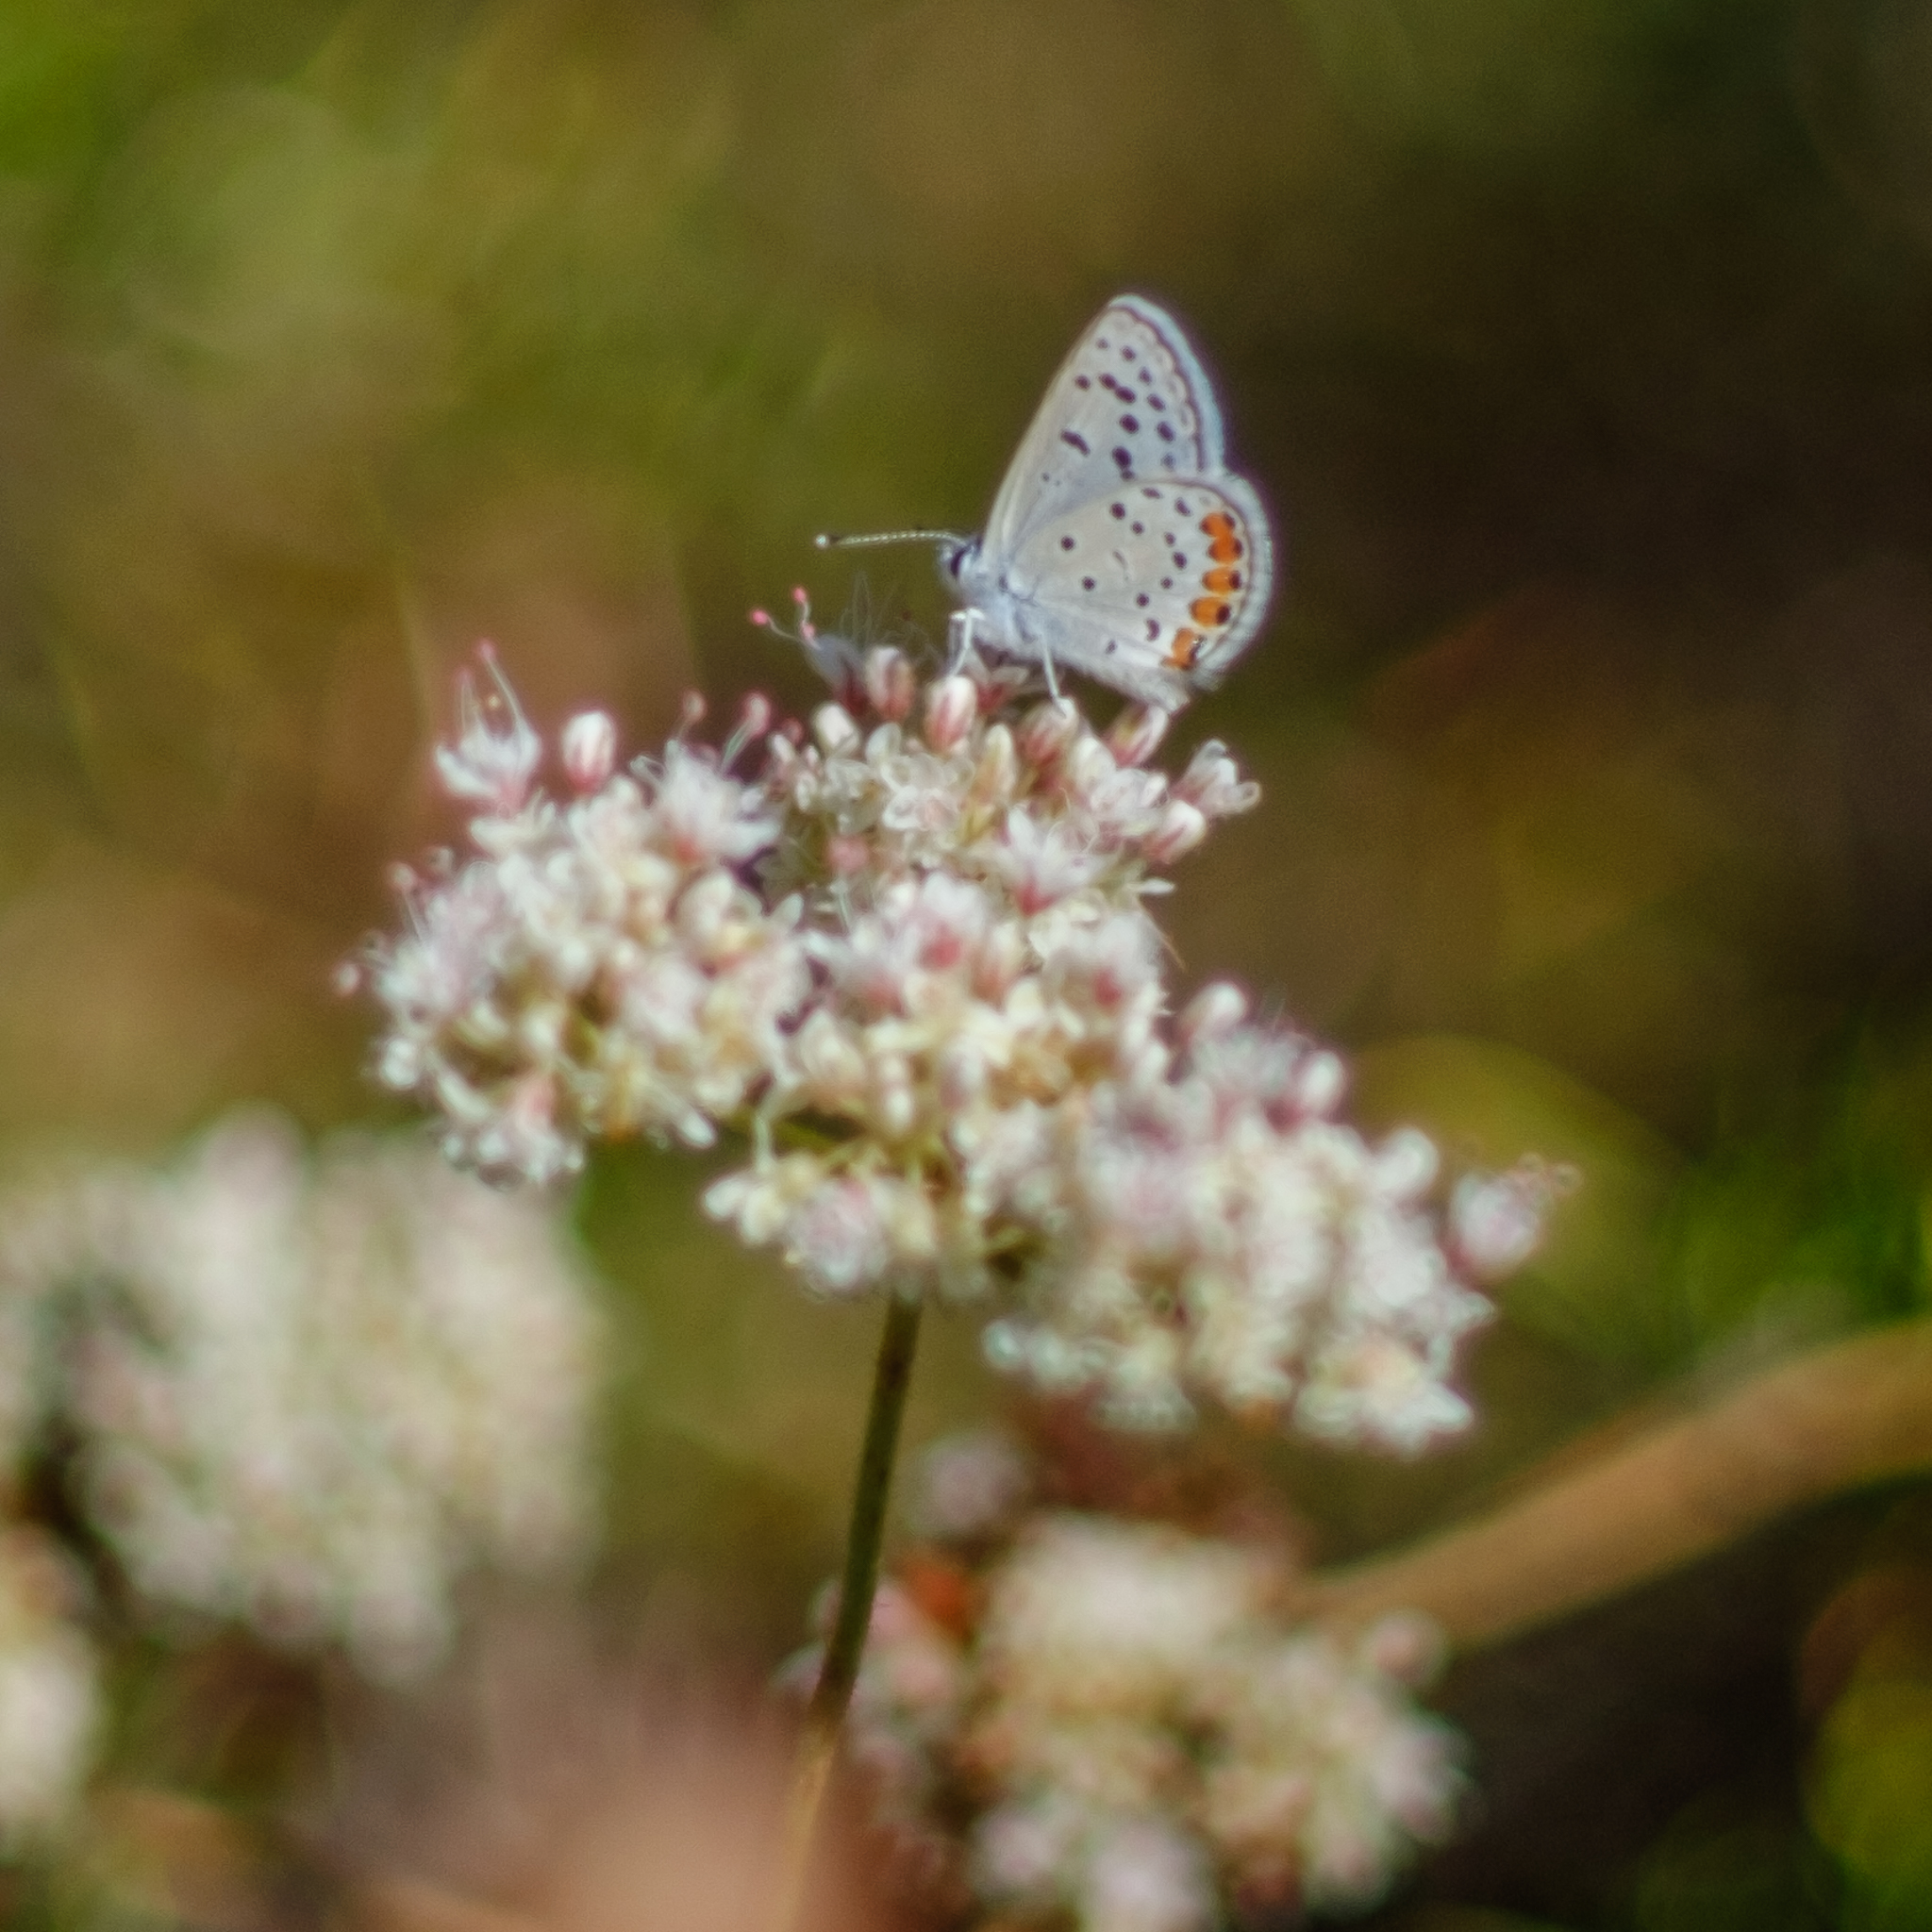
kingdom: Animalia
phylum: Arthropoda
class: Insecta
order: Lepidoptera
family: Lycaenidae
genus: Icaricia
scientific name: Icaricia acmon
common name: Acmon blue
